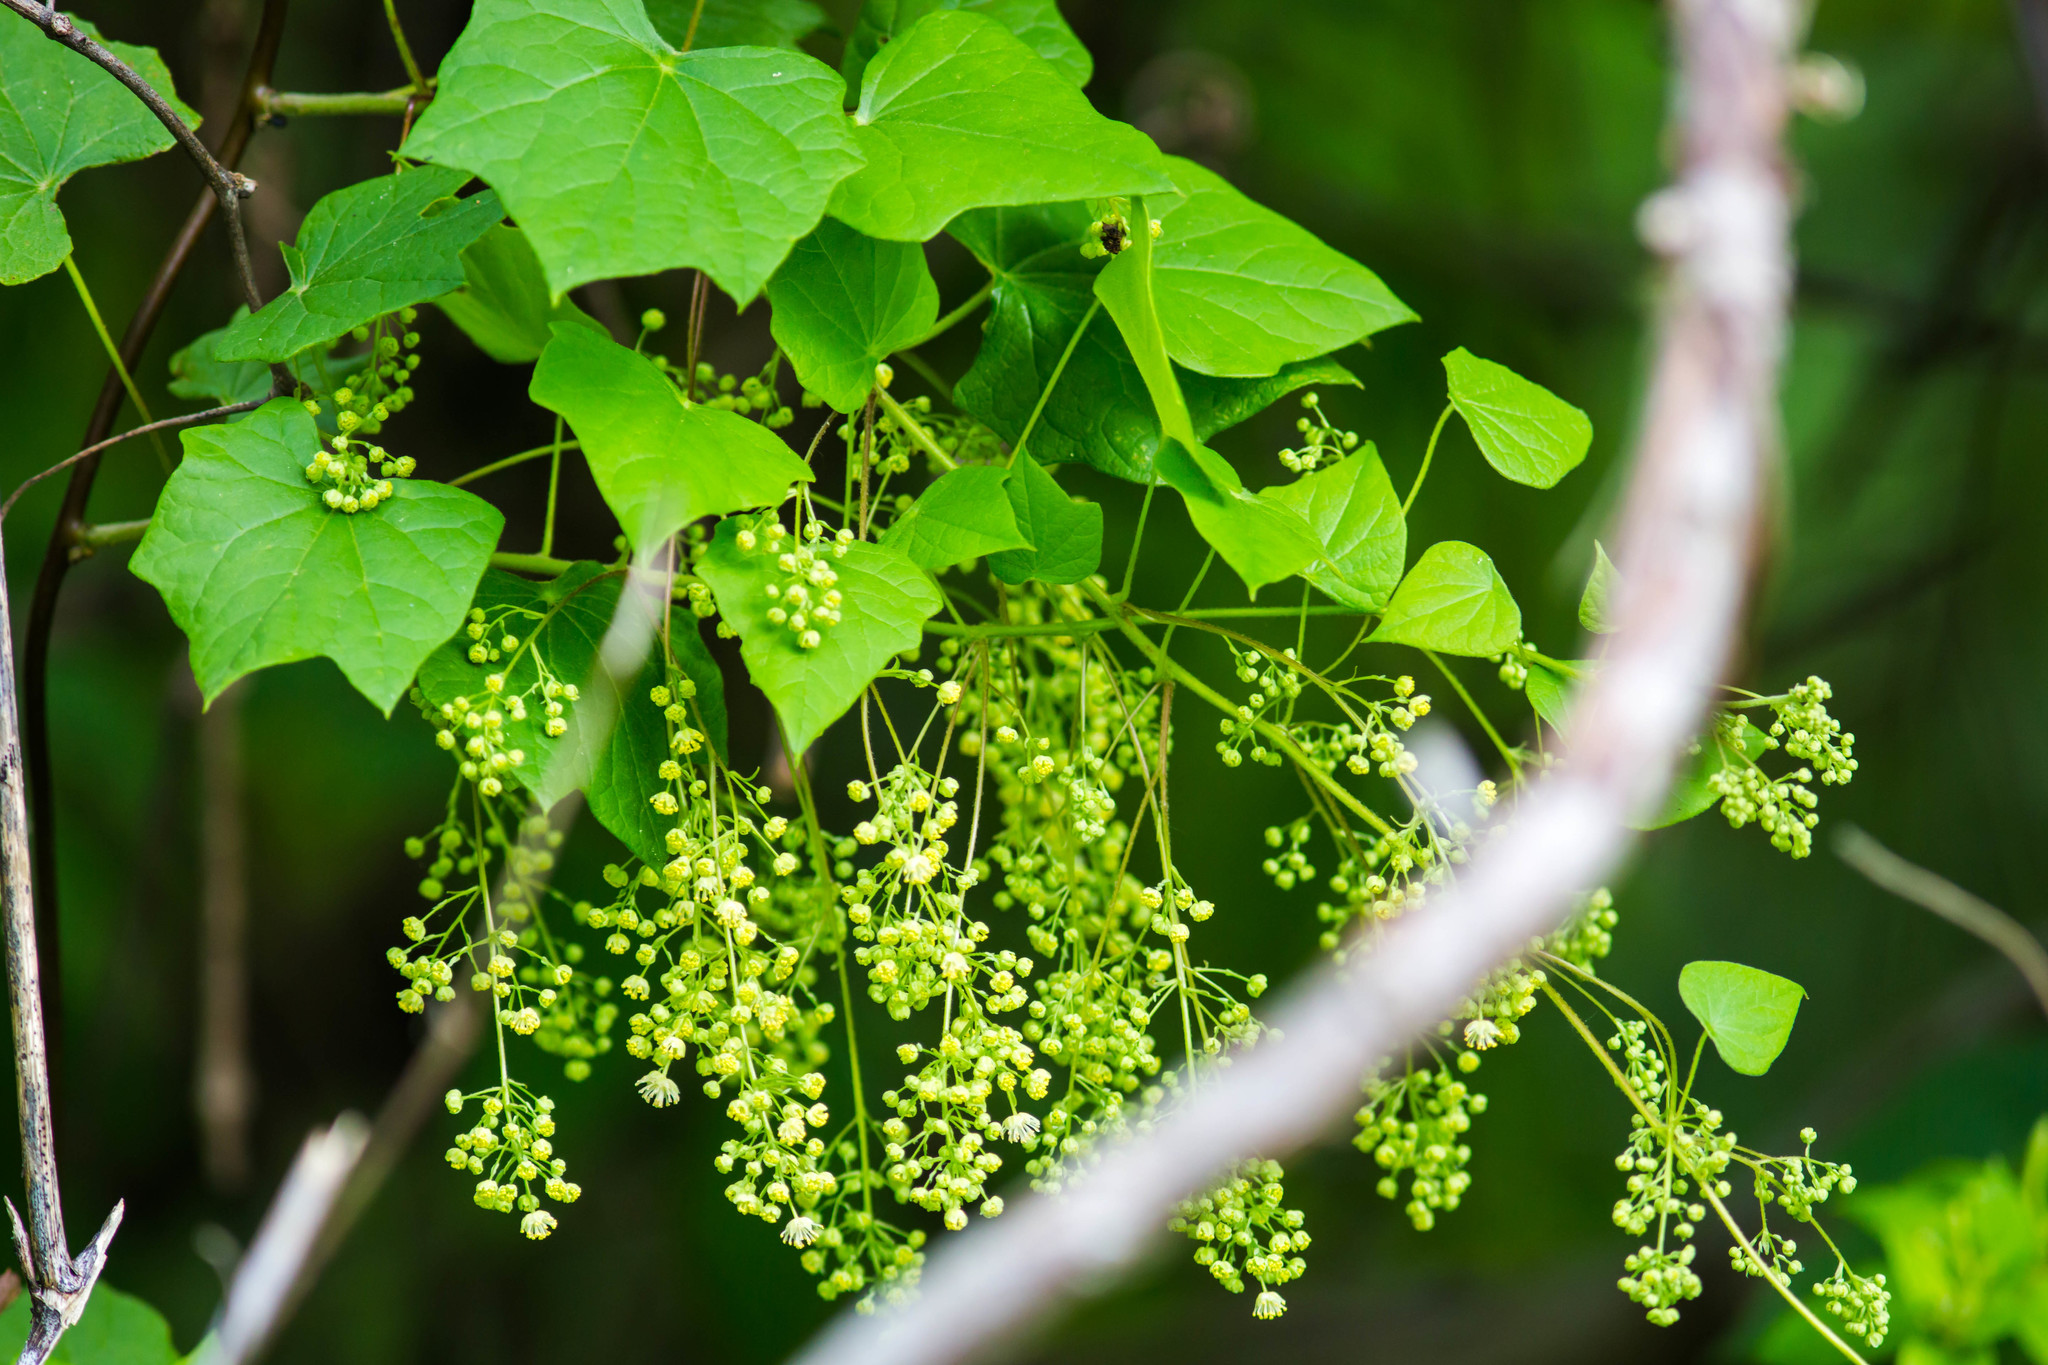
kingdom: Plantae
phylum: Tracheophyta
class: Magnoliopsida
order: Ranunculales
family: Menispermaceae
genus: Menispermum
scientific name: Menispermum canadense
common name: Moonseed
